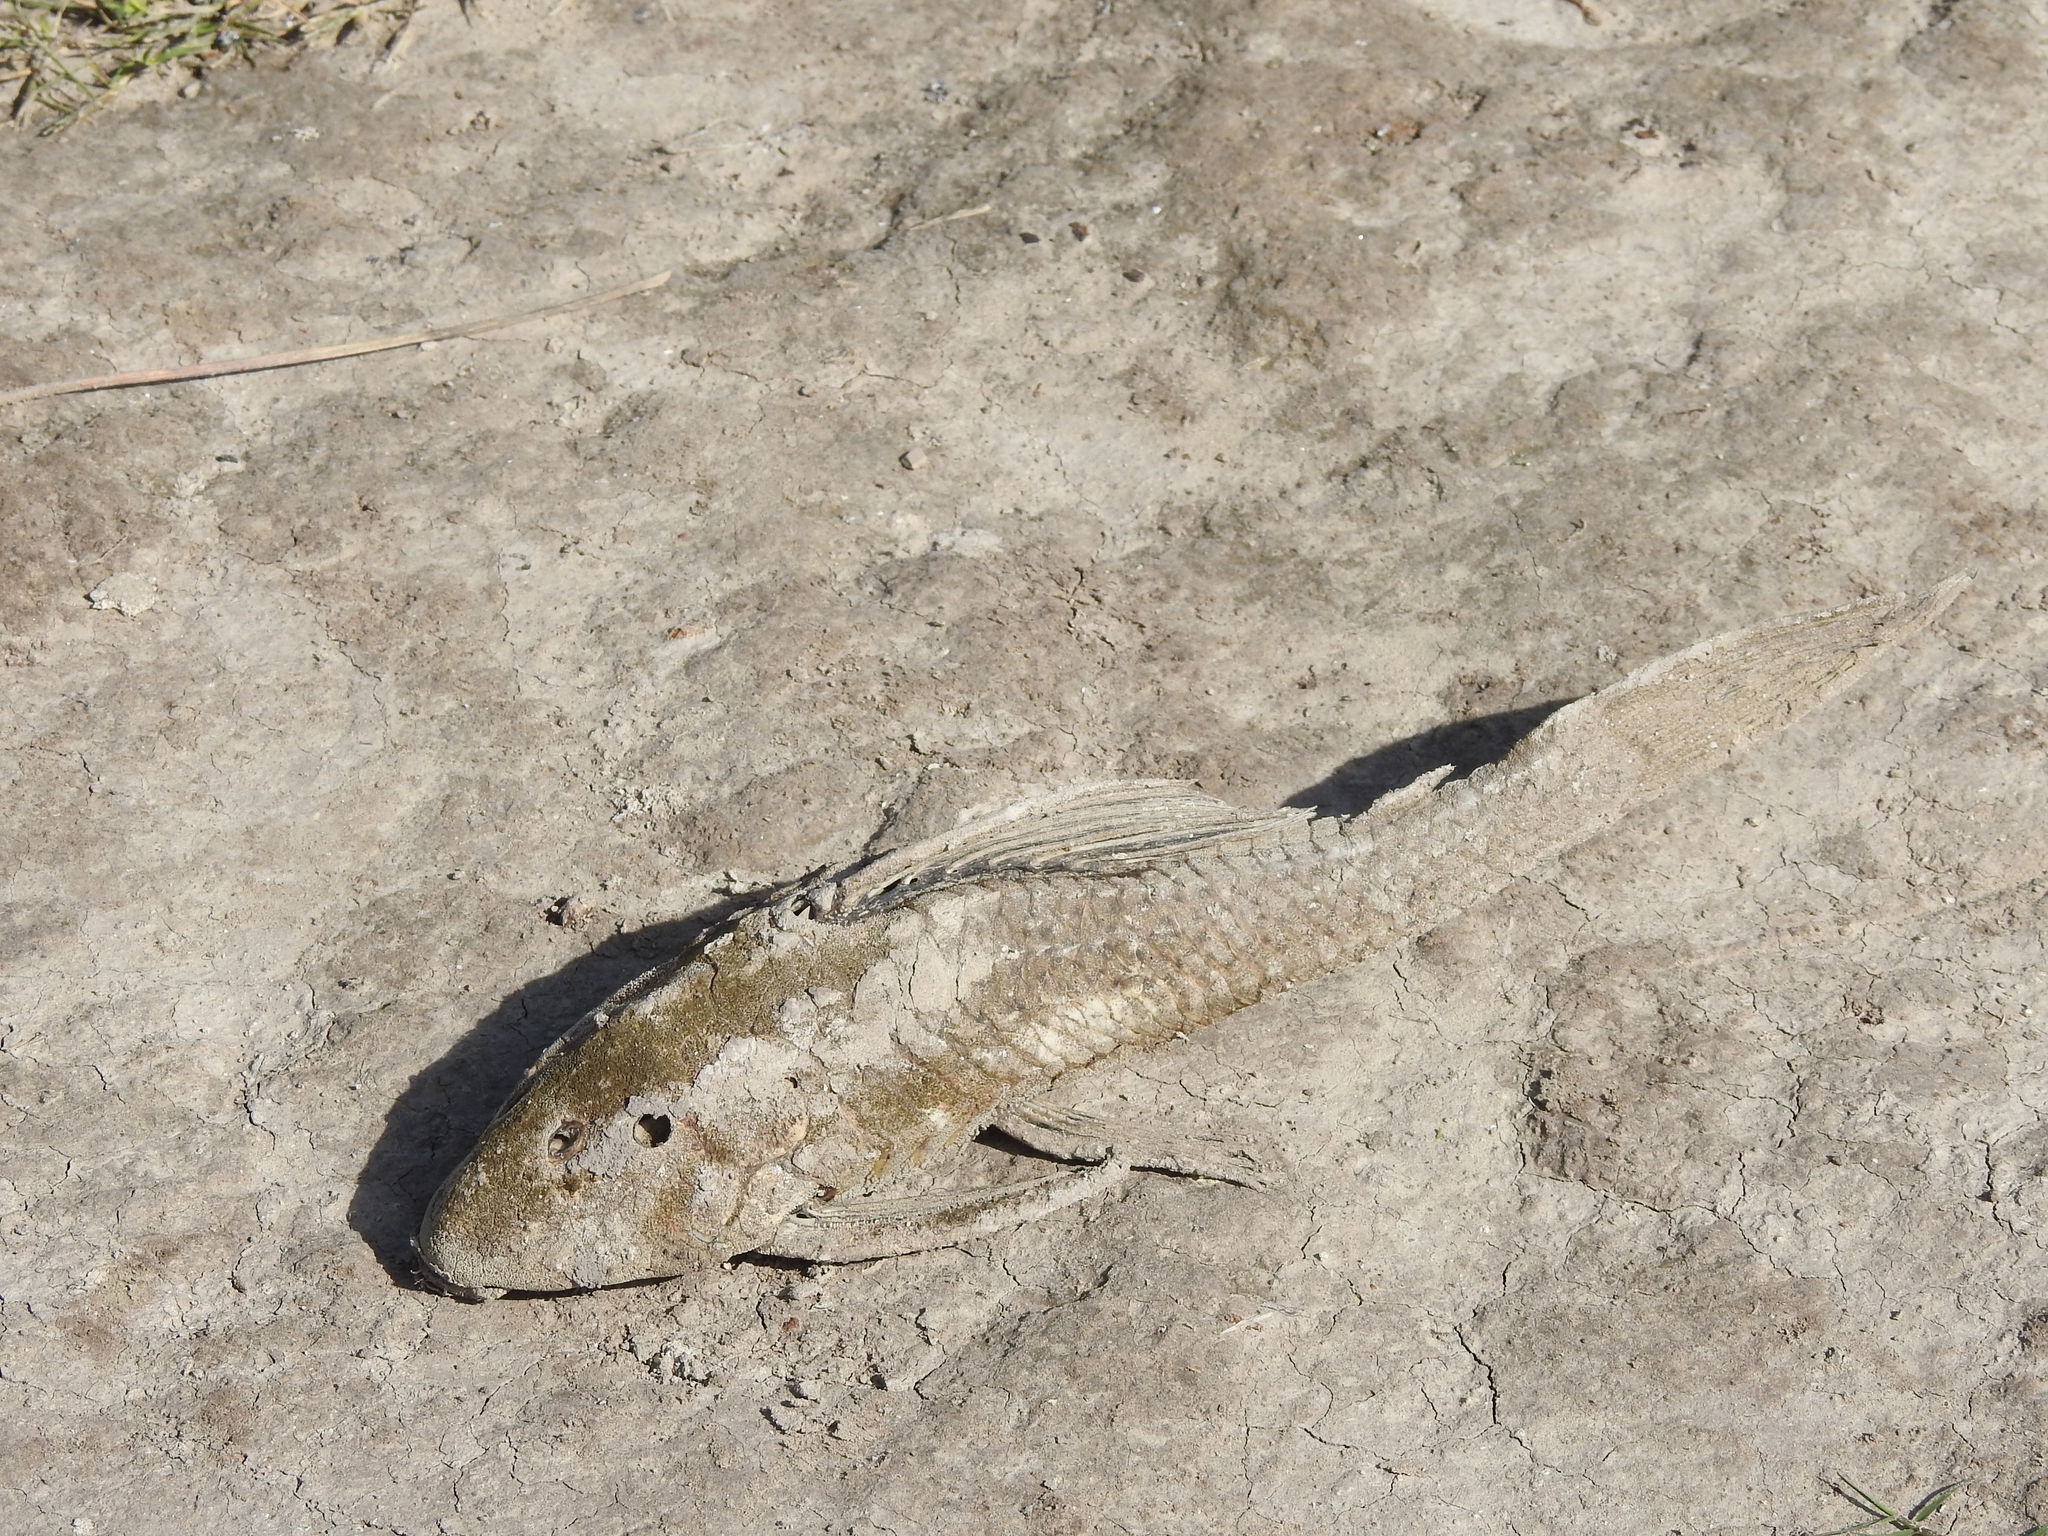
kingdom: Animalia
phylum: Chordata
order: Siluriformes
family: Loricariidae
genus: Hypostomus
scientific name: Hypostomus commersoni
